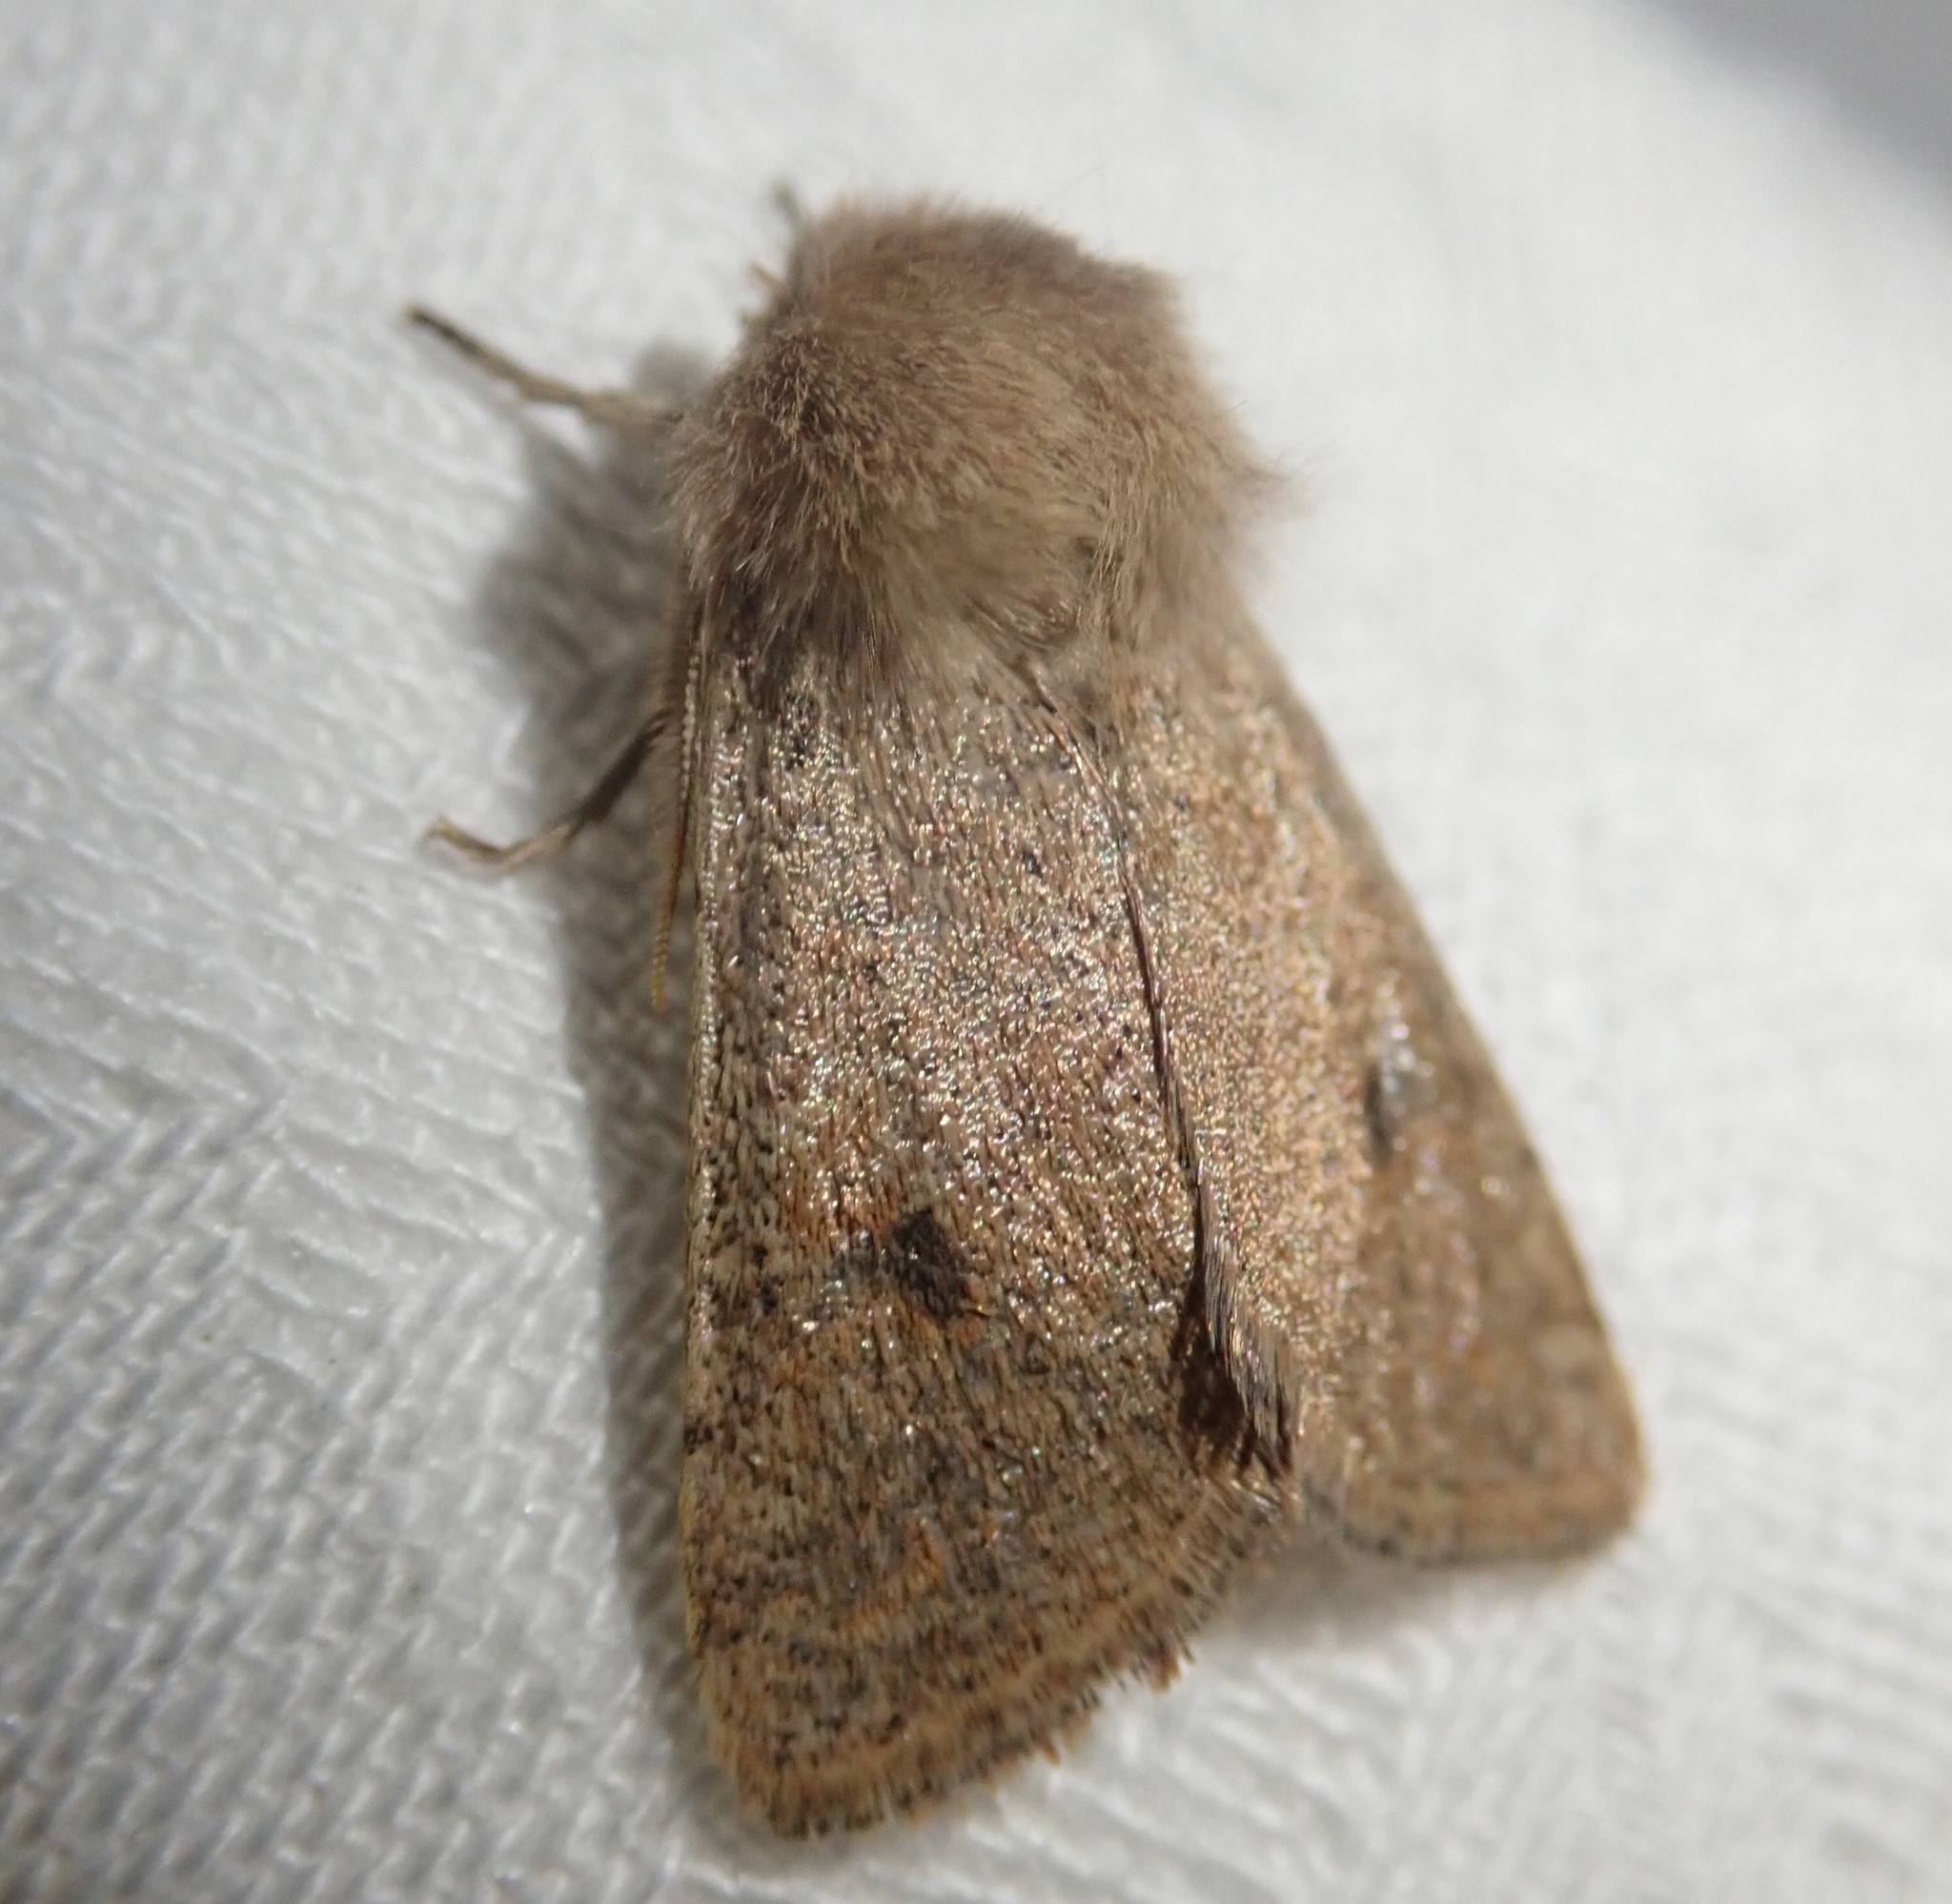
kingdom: Animalia
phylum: Arthropoda
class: Insecta
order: Lepidoptera
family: Noctuidae
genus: Orthosia
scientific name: Orthosia cruda
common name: Small quaker
